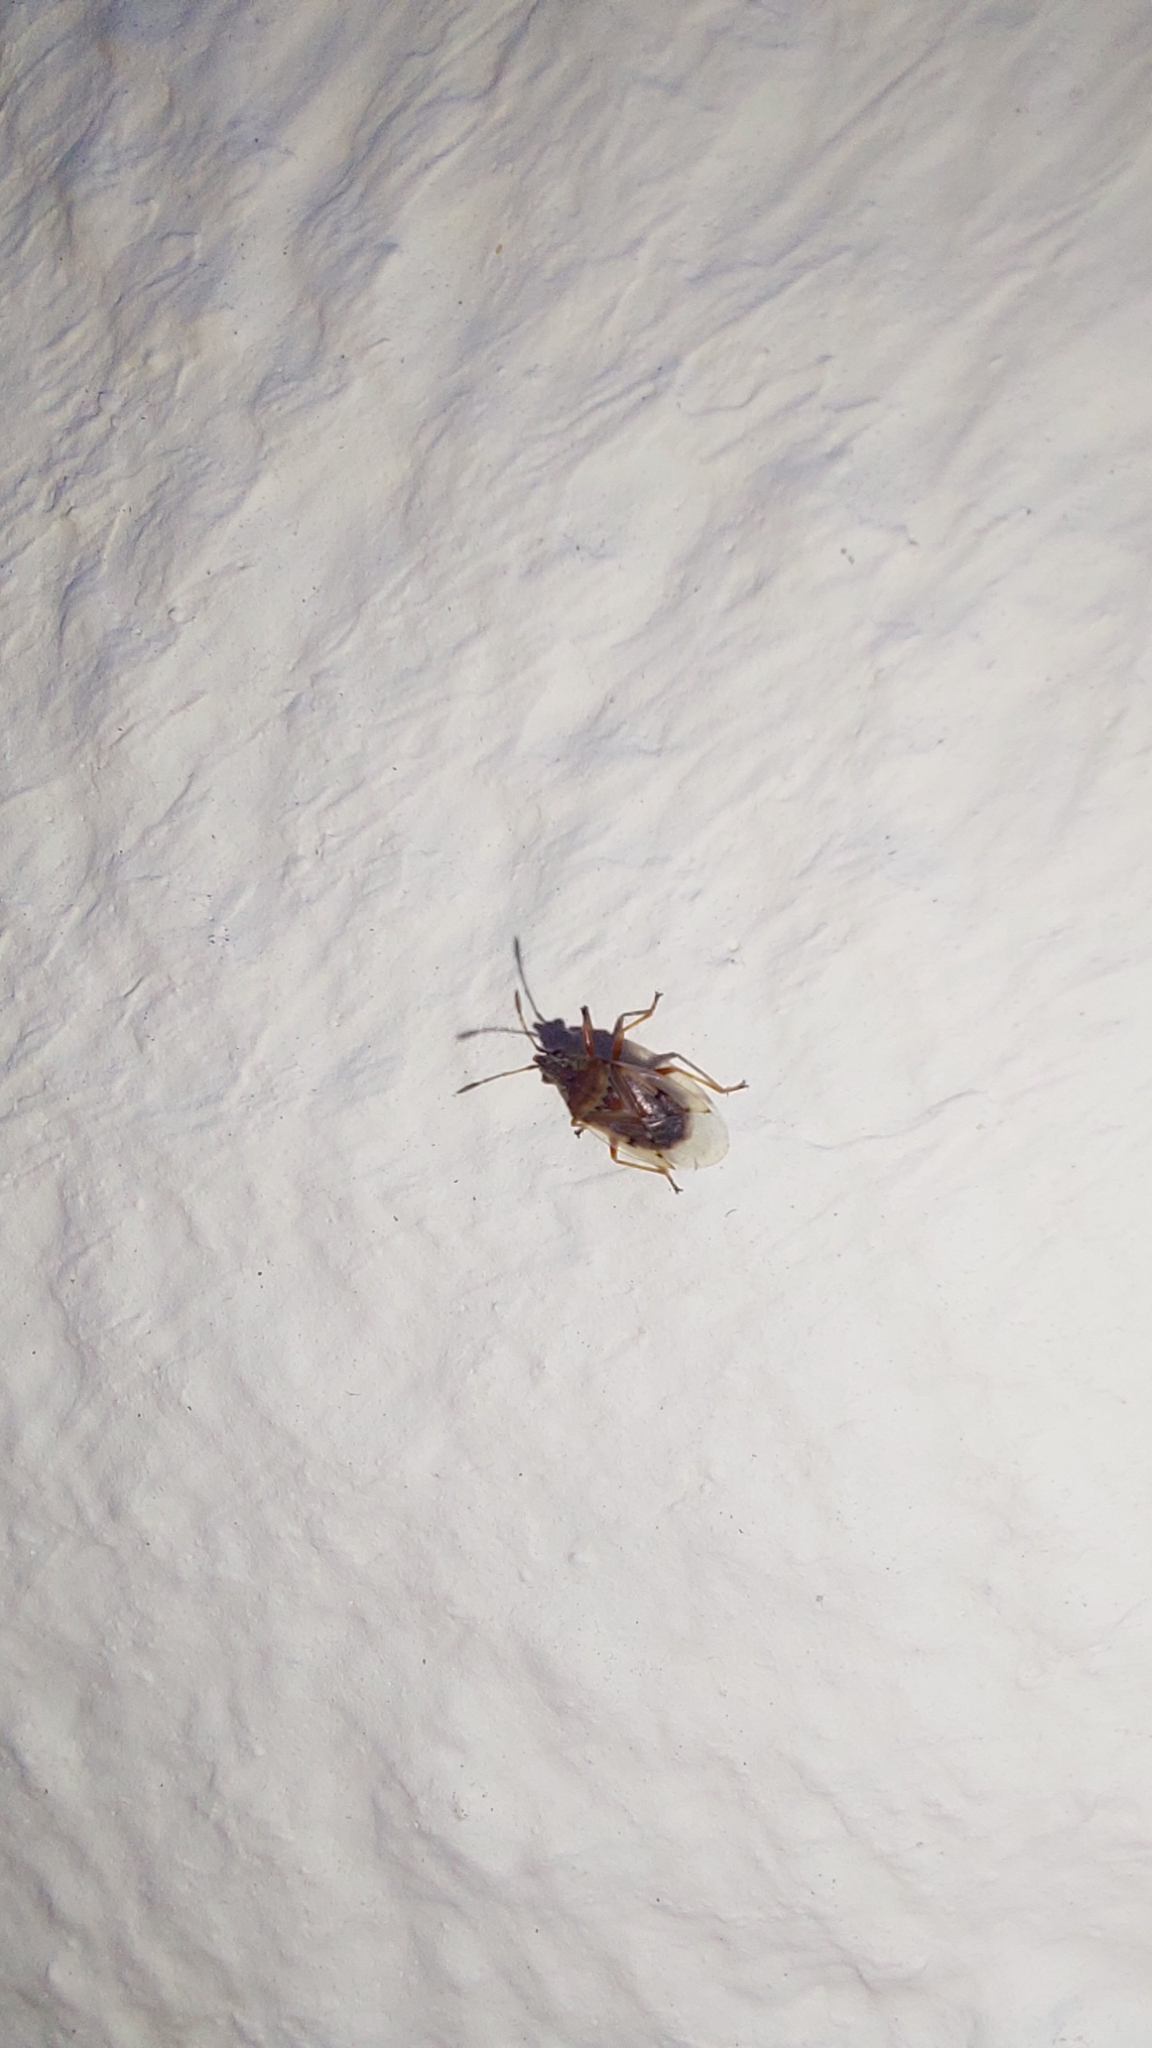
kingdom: Animalia
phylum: Arthropoda
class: Insecta
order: Hemiptera
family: Lygaeidae
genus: Kleidocerys
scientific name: Kleidocerys resedae
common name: Birch catkin bug
